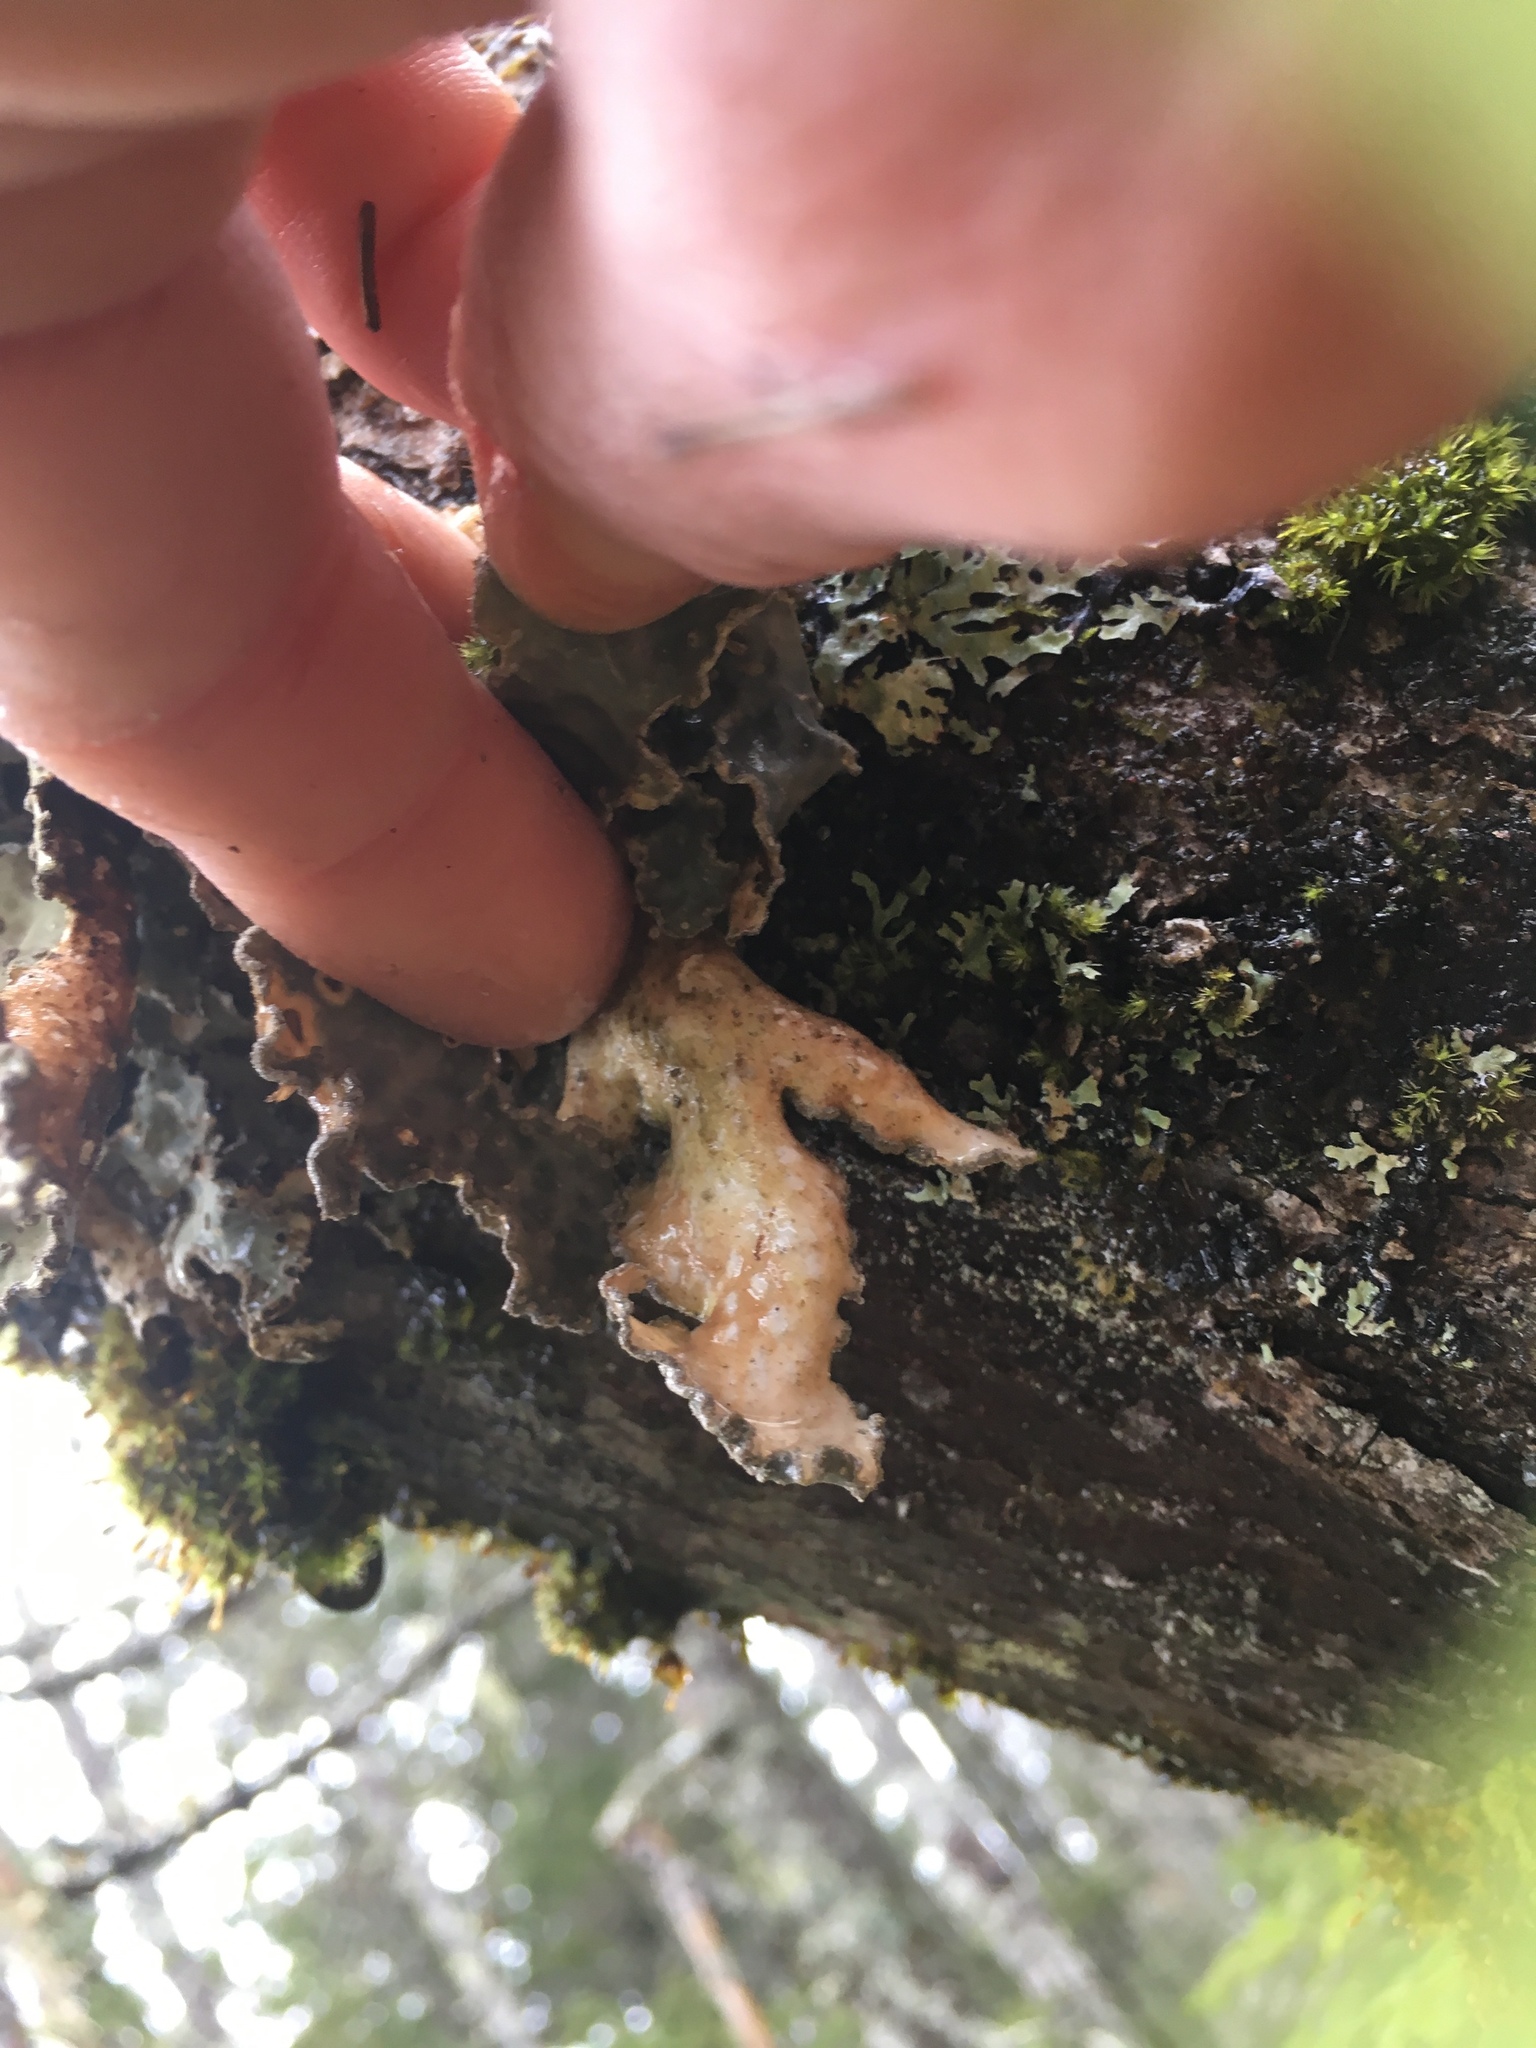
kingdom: Fungi
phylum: Ascomycota
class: Lecanoromycetes
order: Peltigerales
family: Lobariaceae
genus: Lobarina
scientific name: Lobarina scrobiculata
